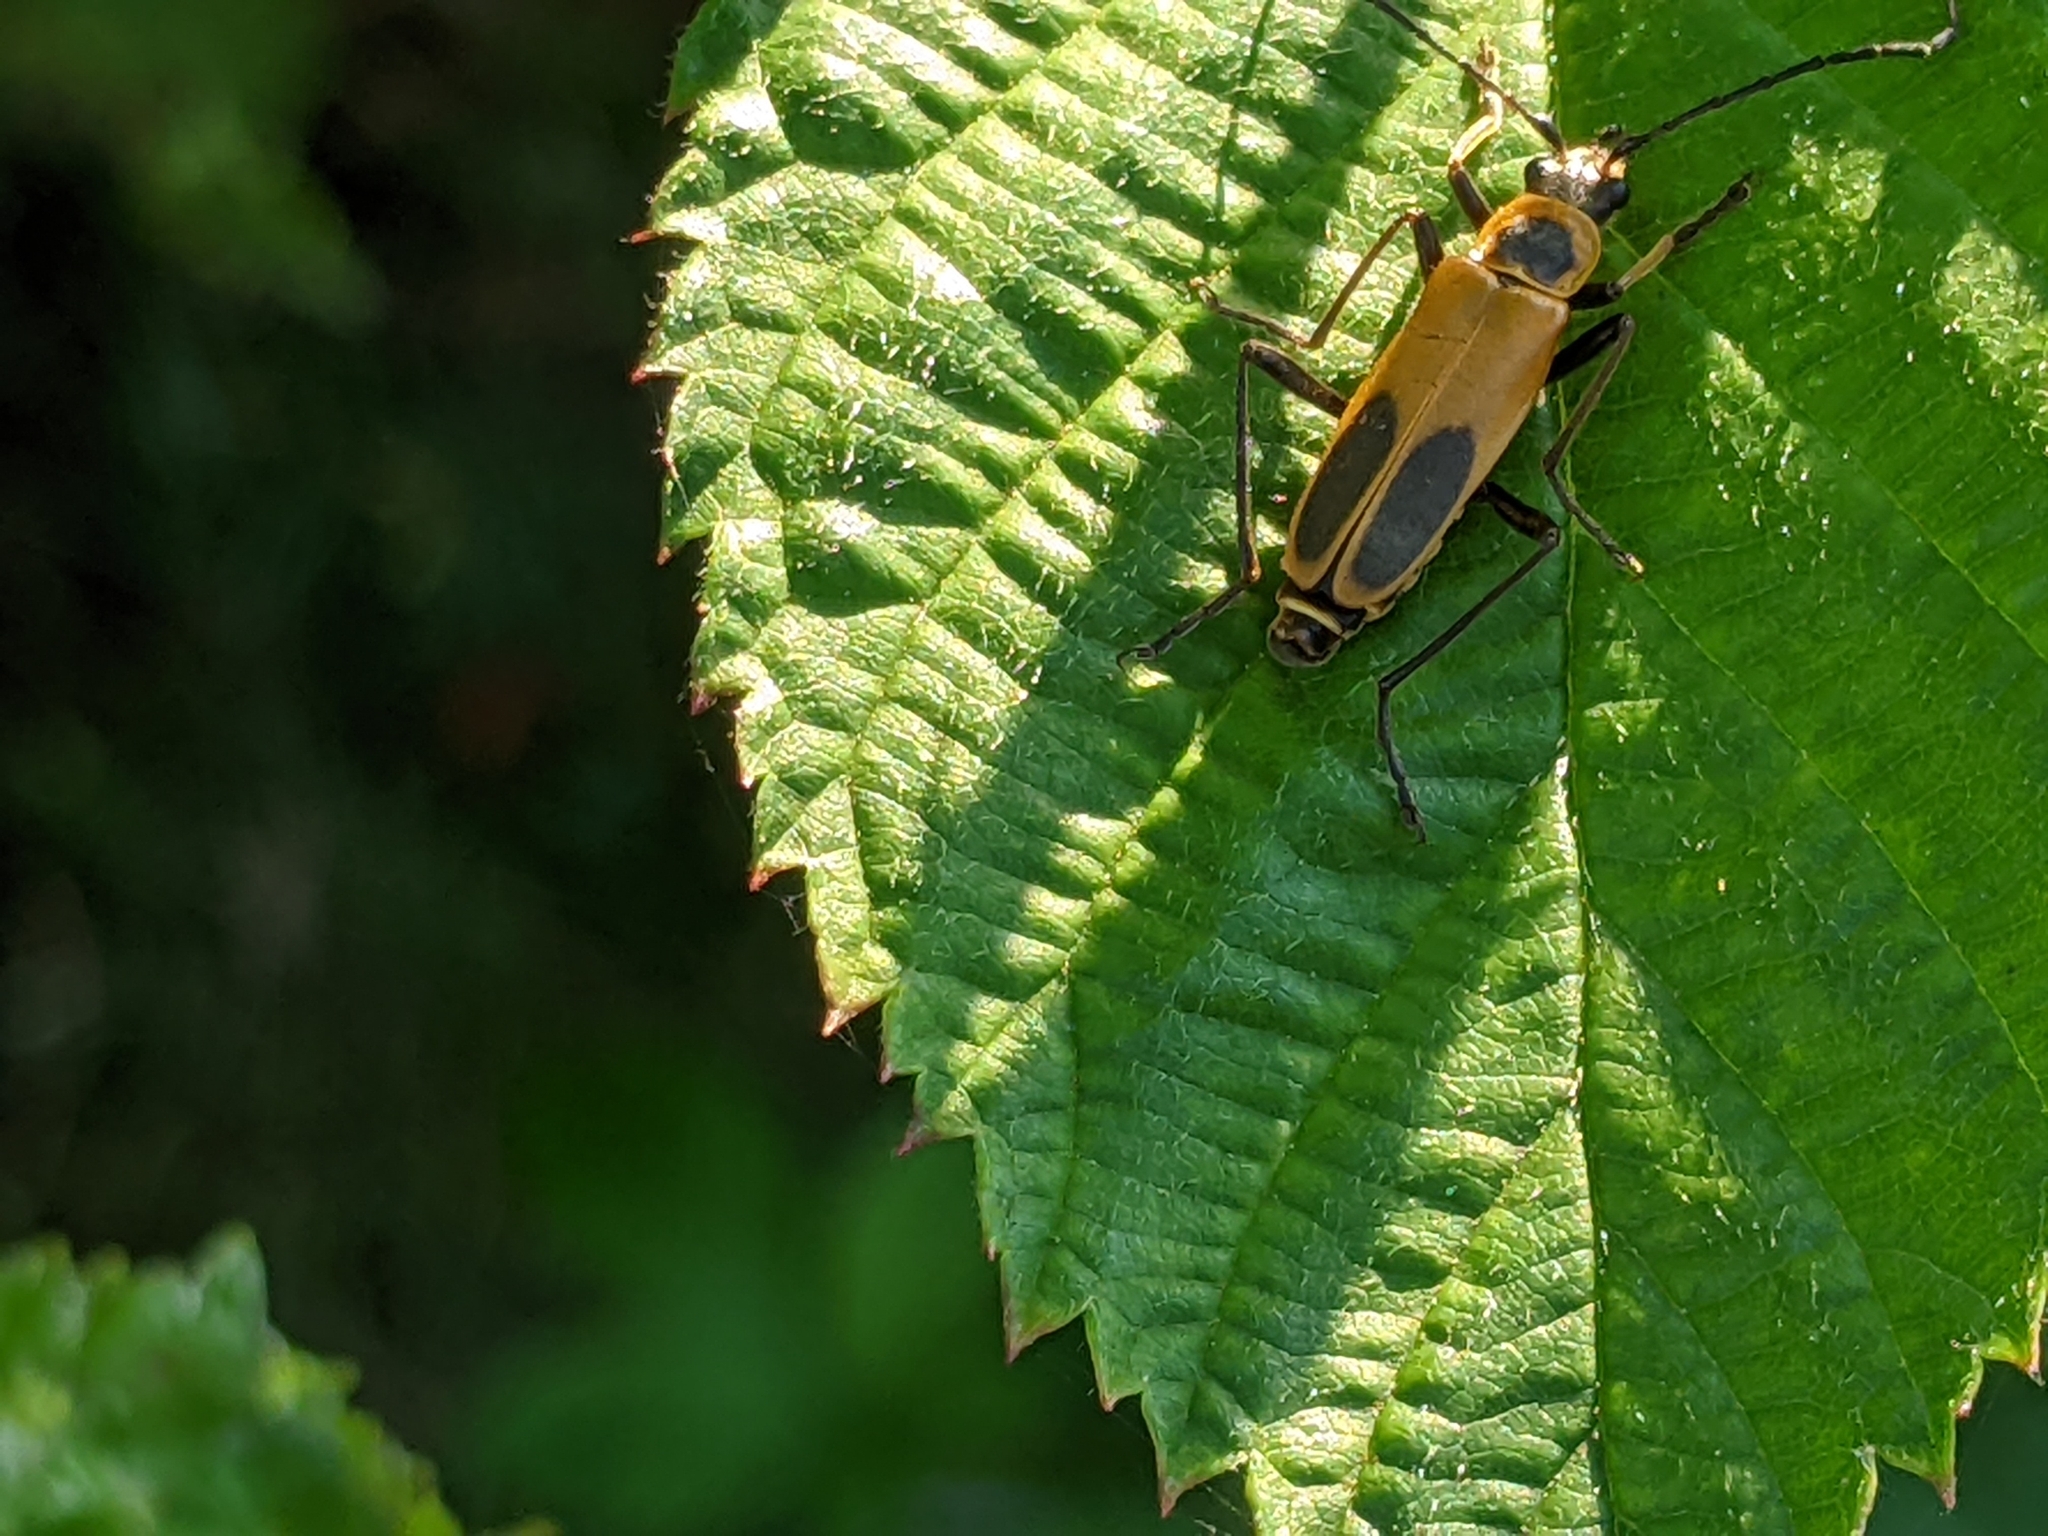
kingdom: Animalia
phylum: Arthropoda
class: Insecta
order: Coleoptera
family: Cantharidae
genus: Chauliognathus
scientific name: Chauliognathus pensylvanicus
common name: Goldenrod soldier beetle
